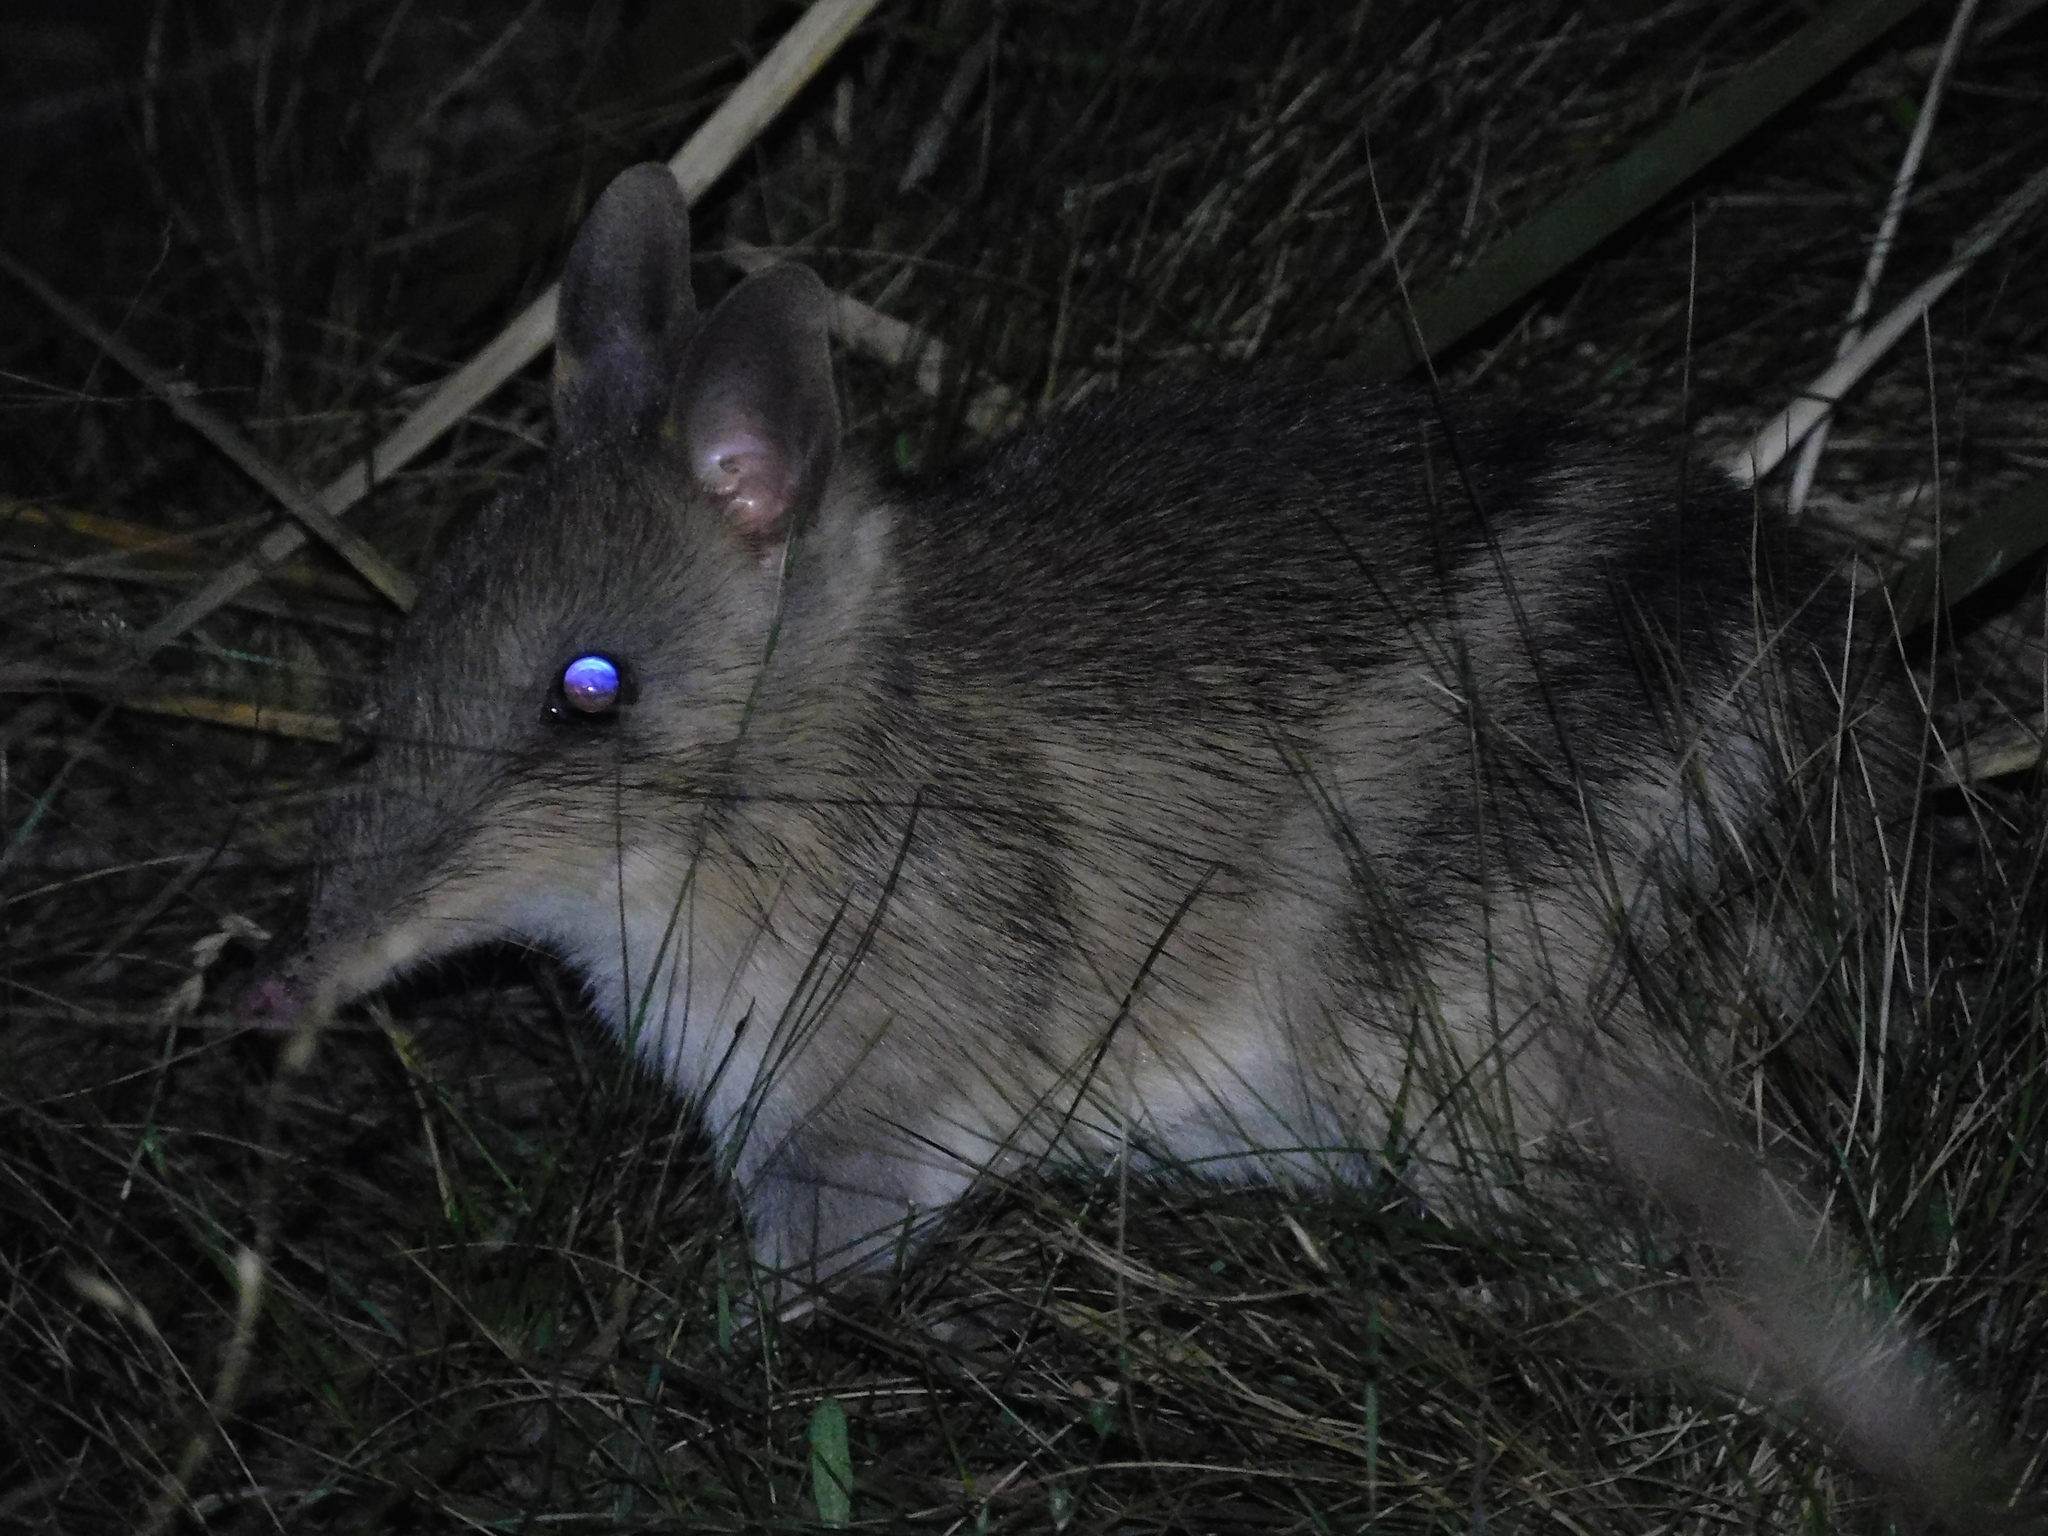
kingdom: Animalia
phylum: Chordata
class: Mammalia
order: Peramelemorphia
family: Peramelidae
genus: Perameles
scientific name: Perameles gunnii
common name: Eastern barred bandicoot
